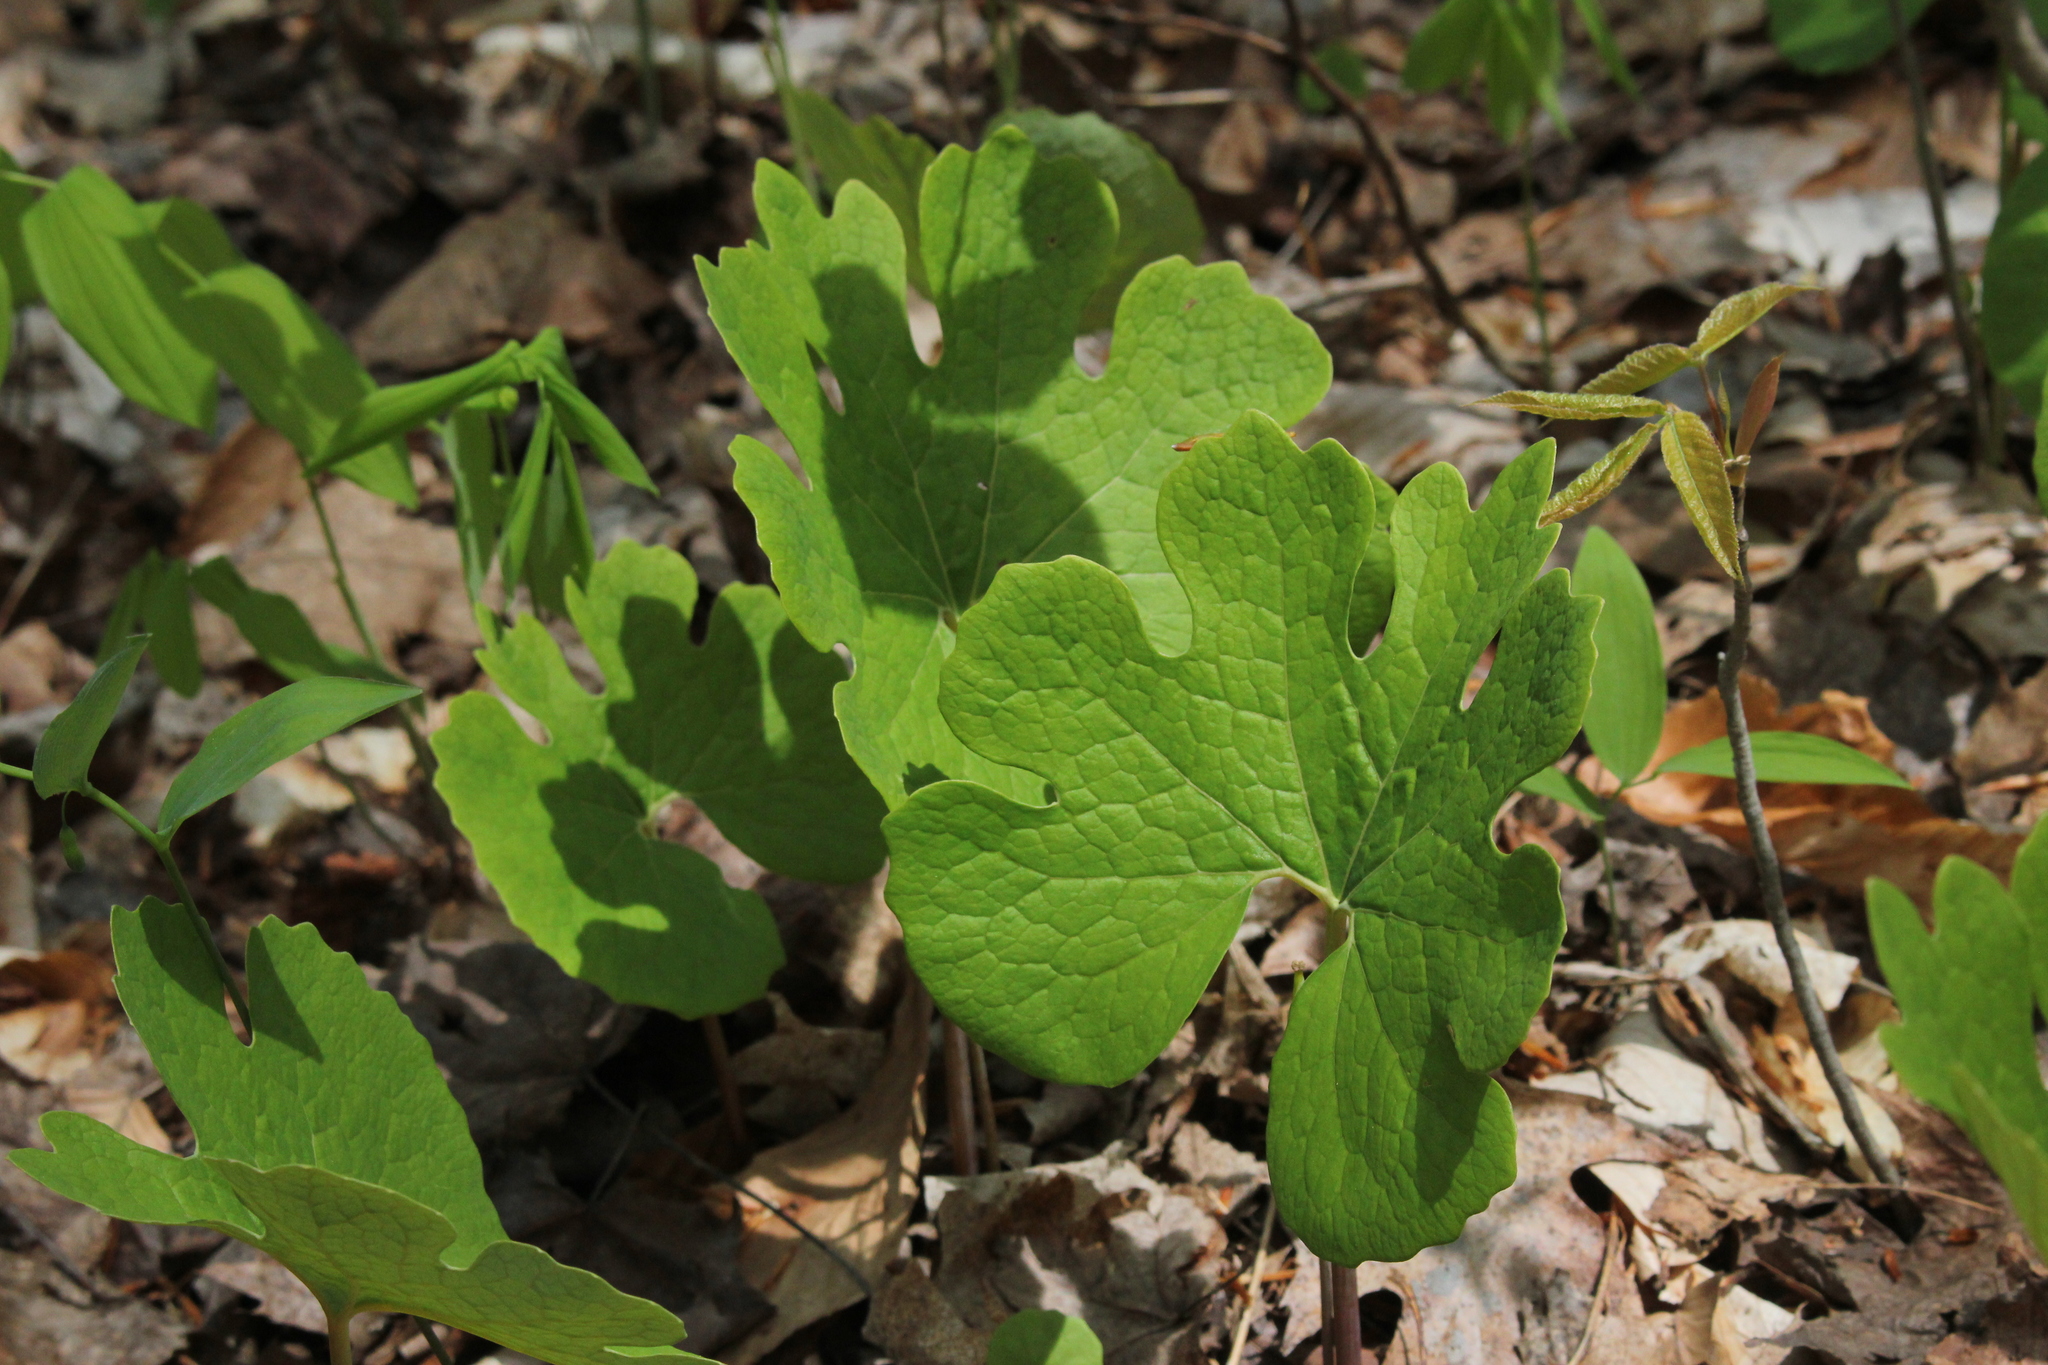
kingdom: Plantae
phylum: Tracheophyta
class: Magnoliopsida
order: Ranunculales
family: Papaveraceae
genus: Sanguinaria
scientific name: Sanguinaria canadensis
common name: Bloodroot
